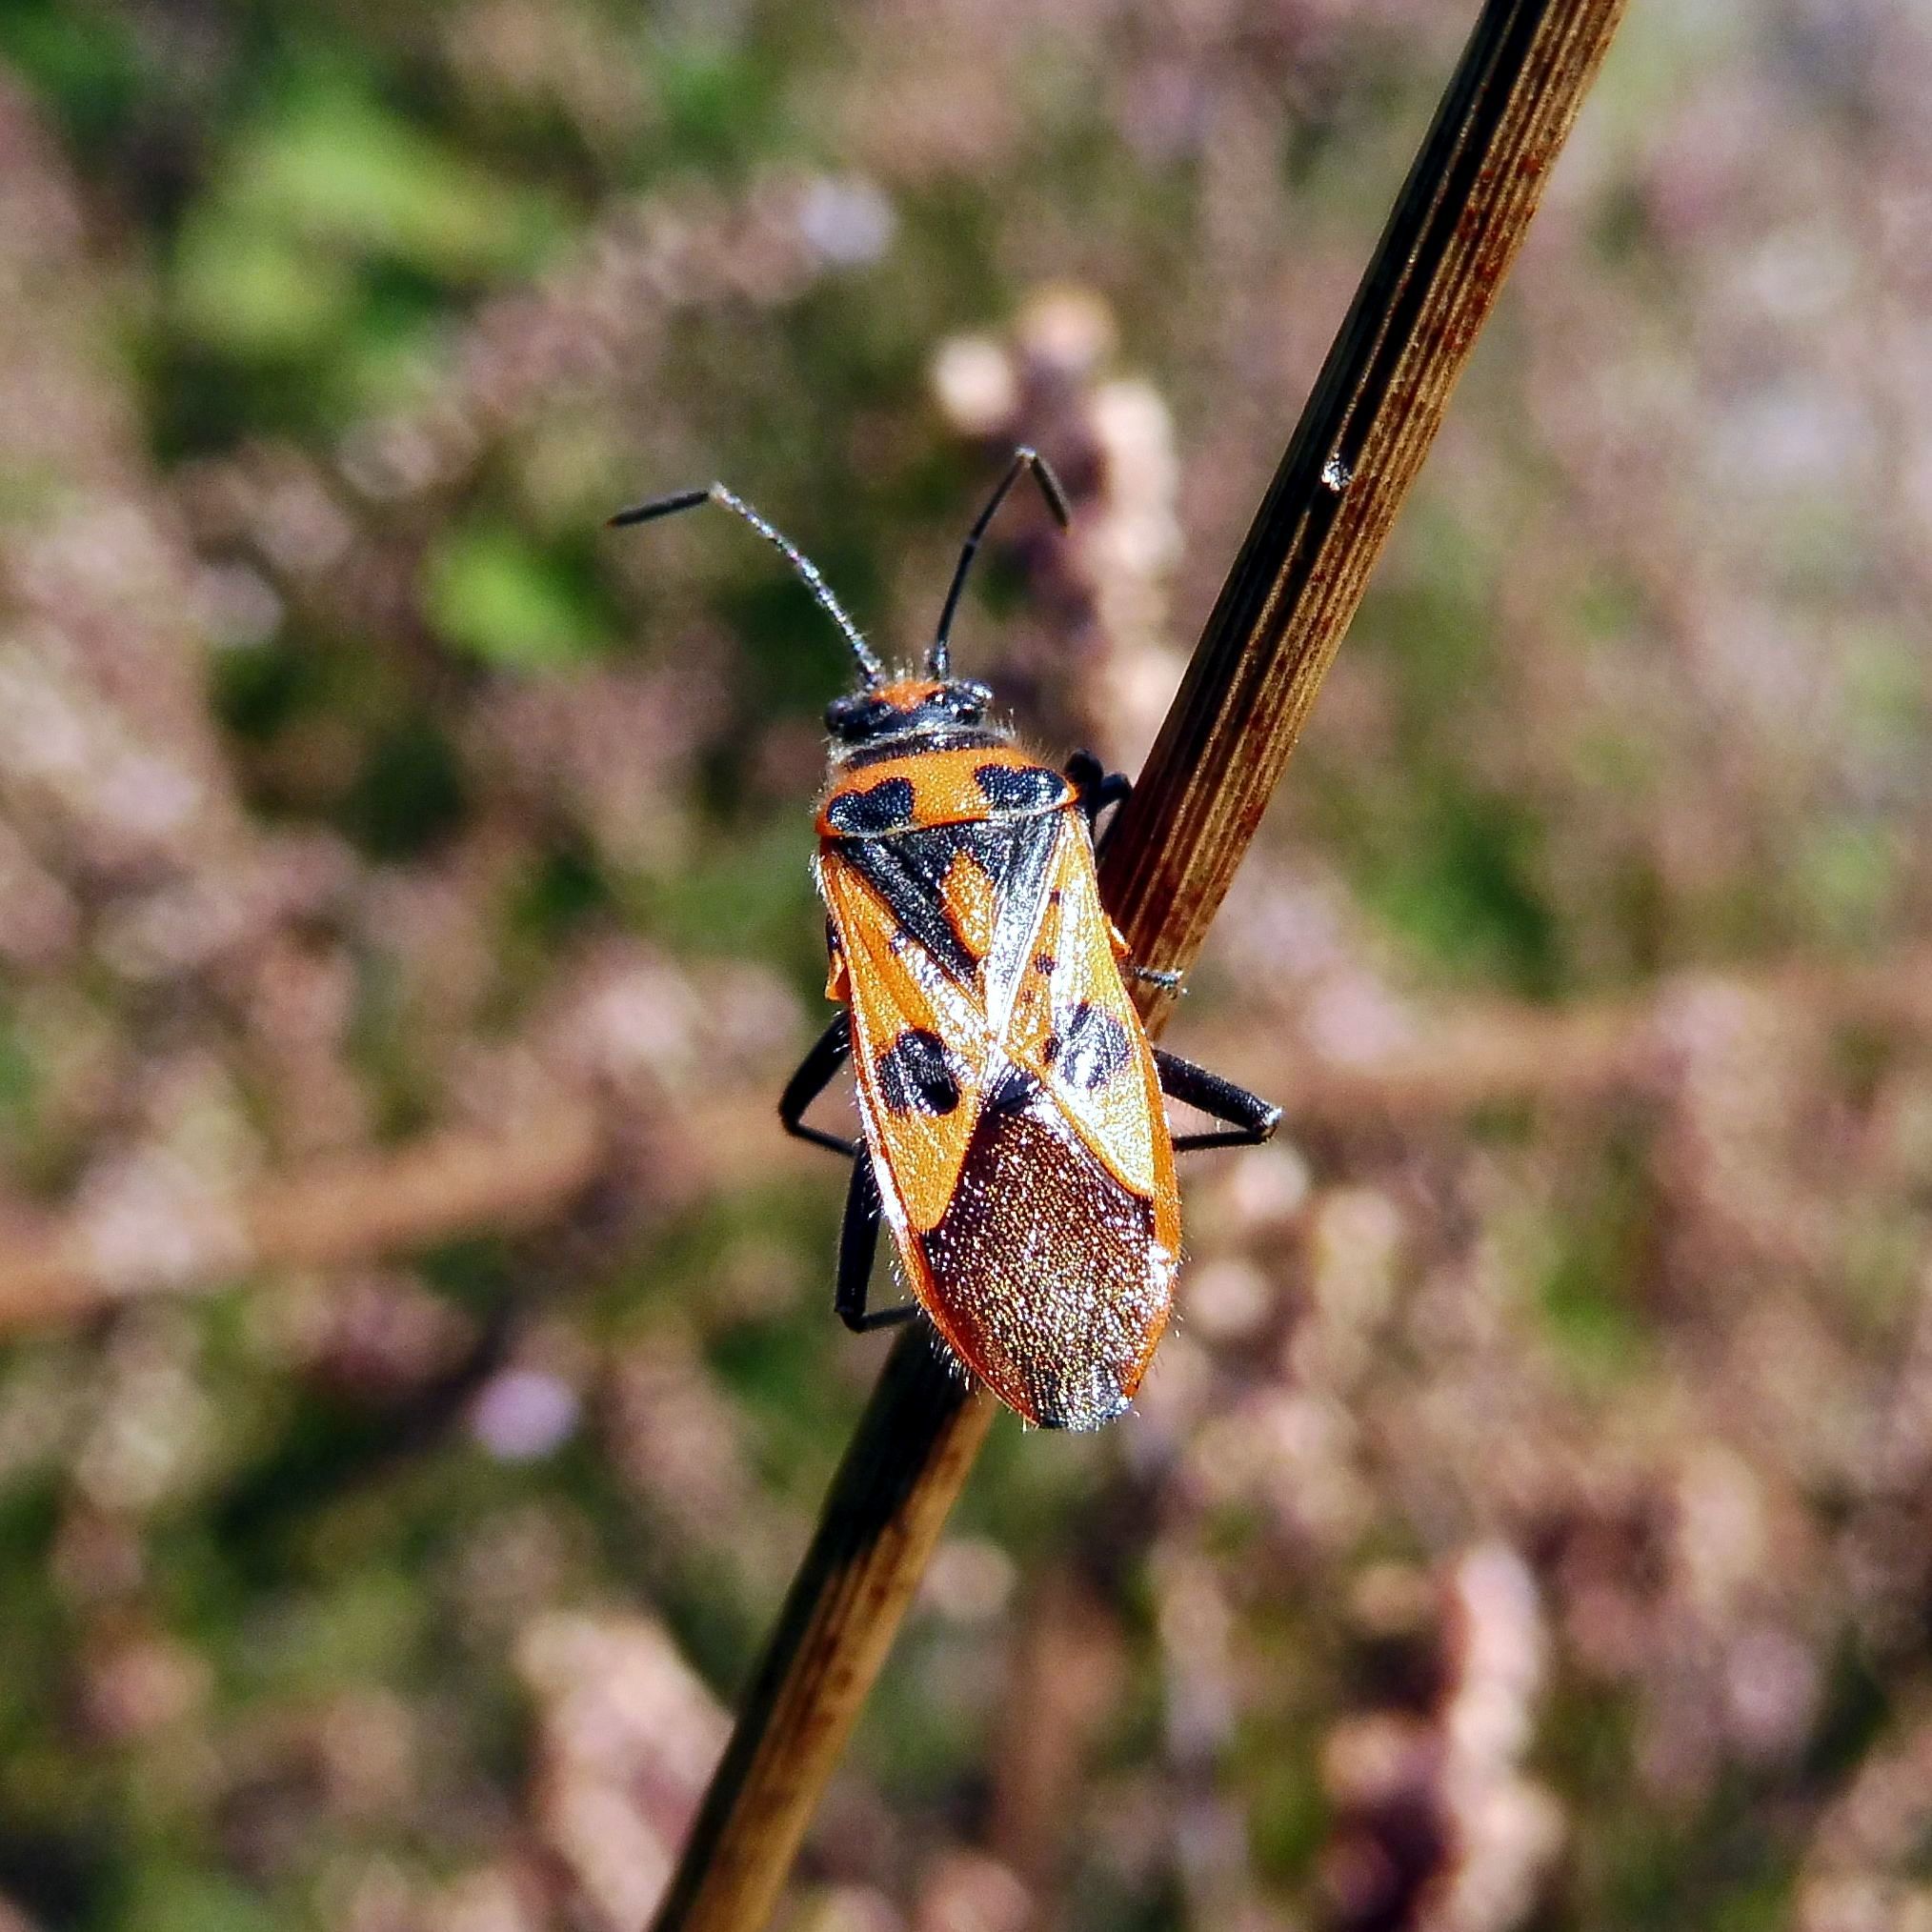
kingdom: Animalia
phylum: Arthropoda
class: Insecta
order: Hemiptera
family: Rhopalidae
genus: Corizus
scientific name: Corizus hyoscyami
